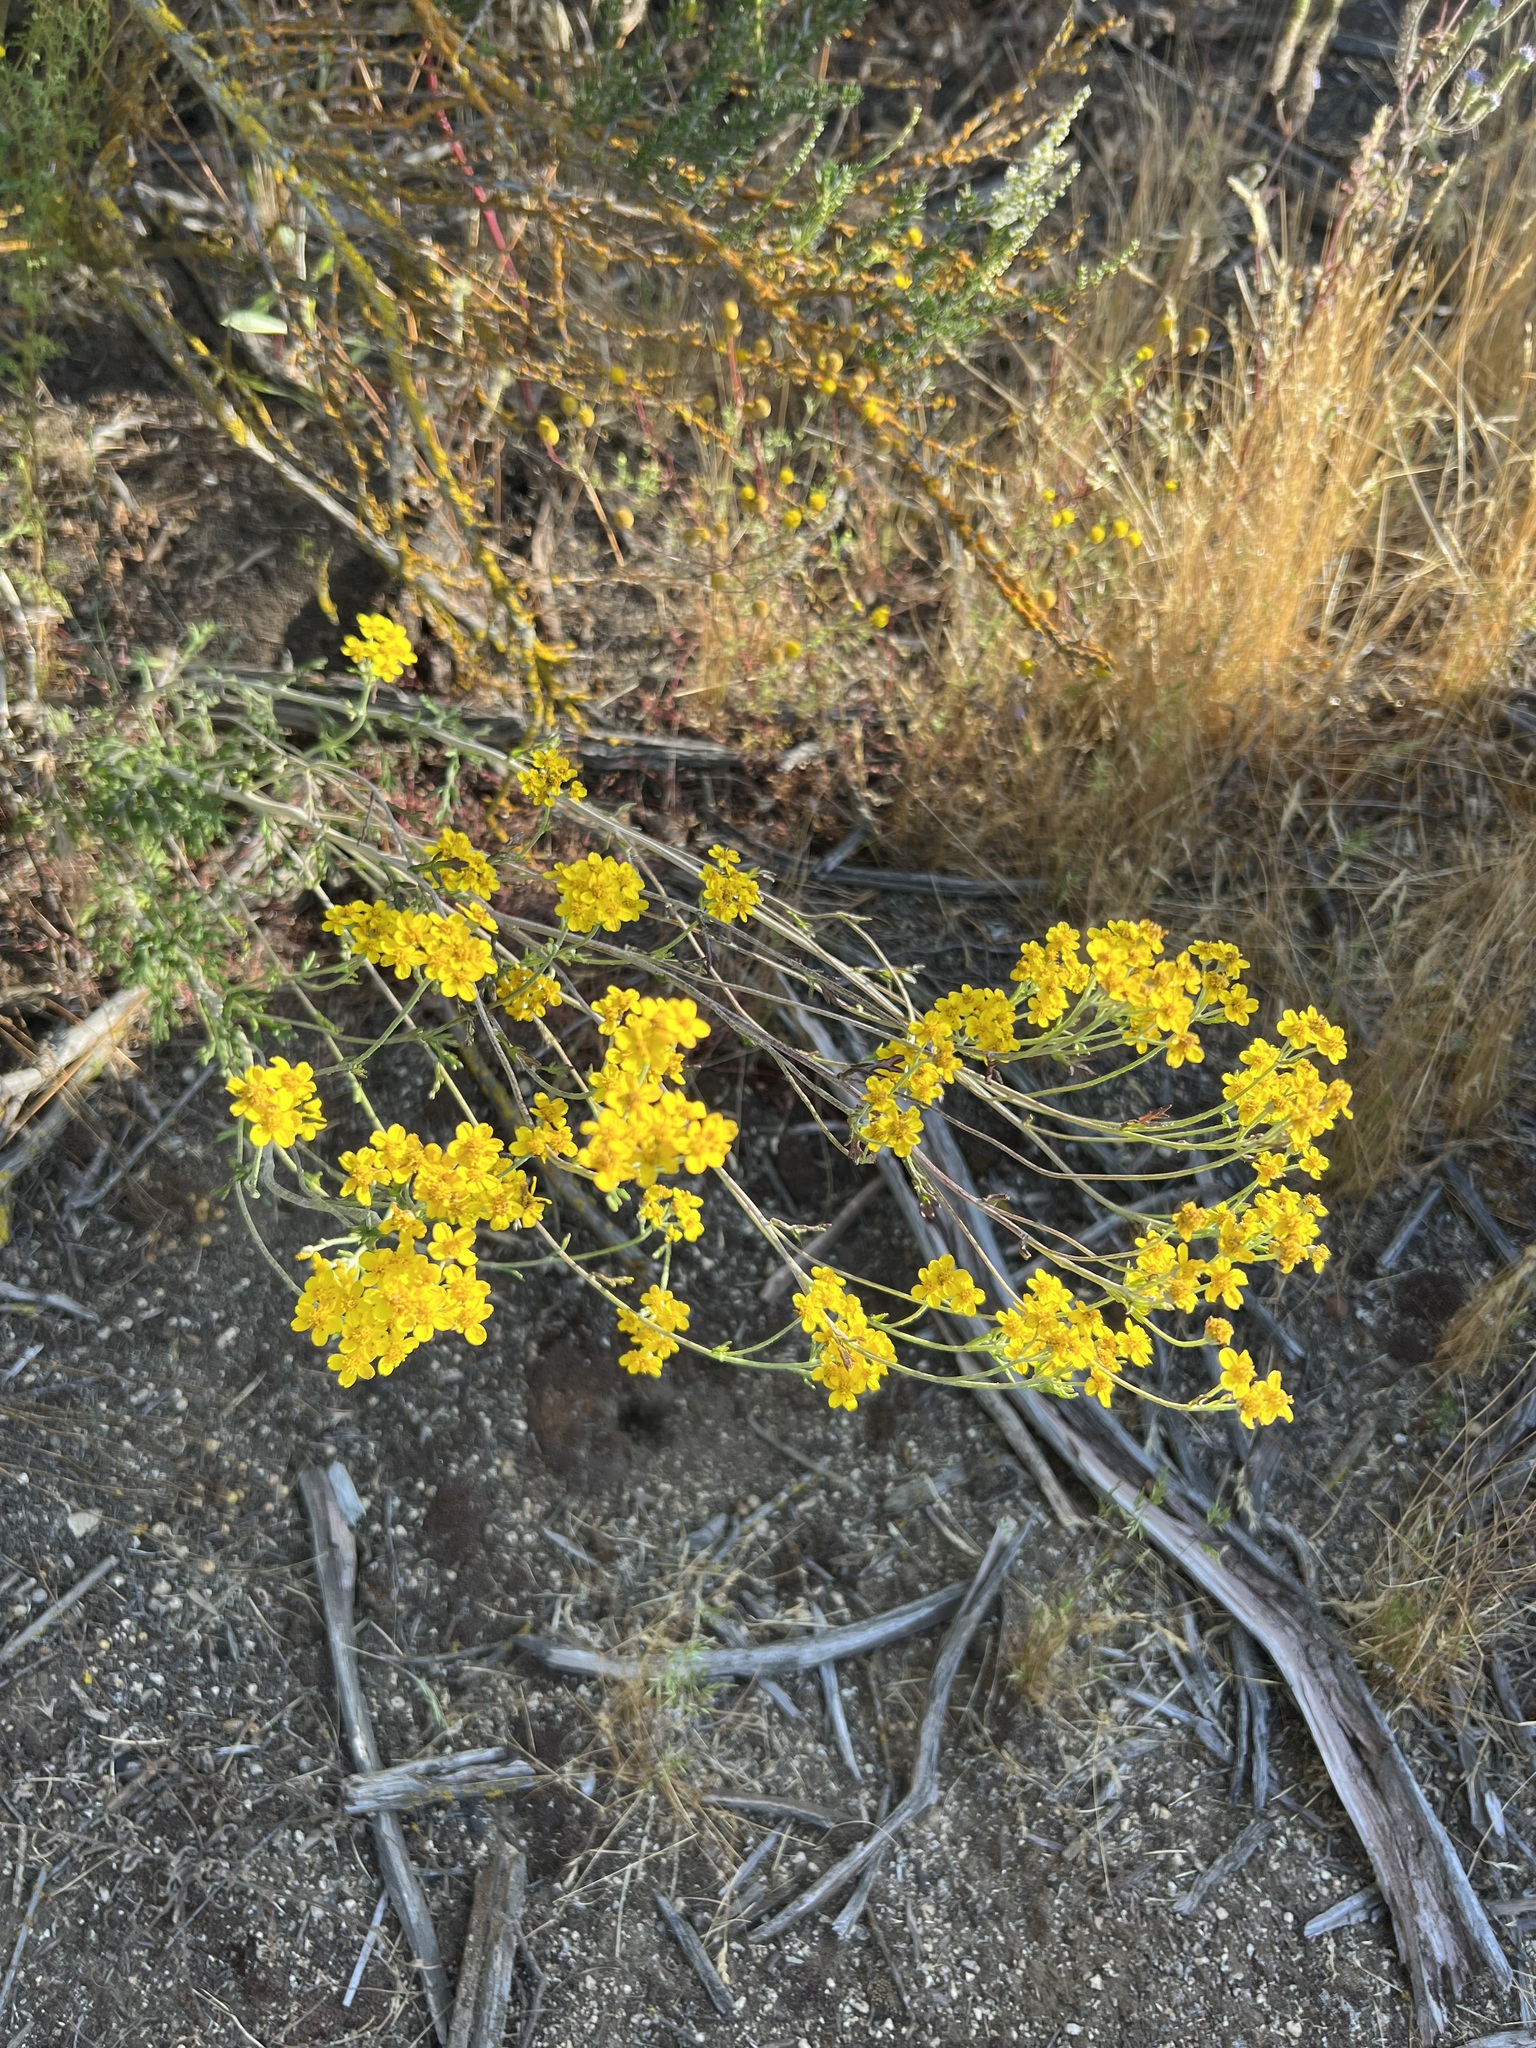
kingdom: Plantae
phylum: Tracheophyta
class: Magnoliopsida
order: Asterales
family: Asteraceae
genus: Eriophyllum
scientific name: Eriophyllum confertiflorum
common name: Golden-yarrow
